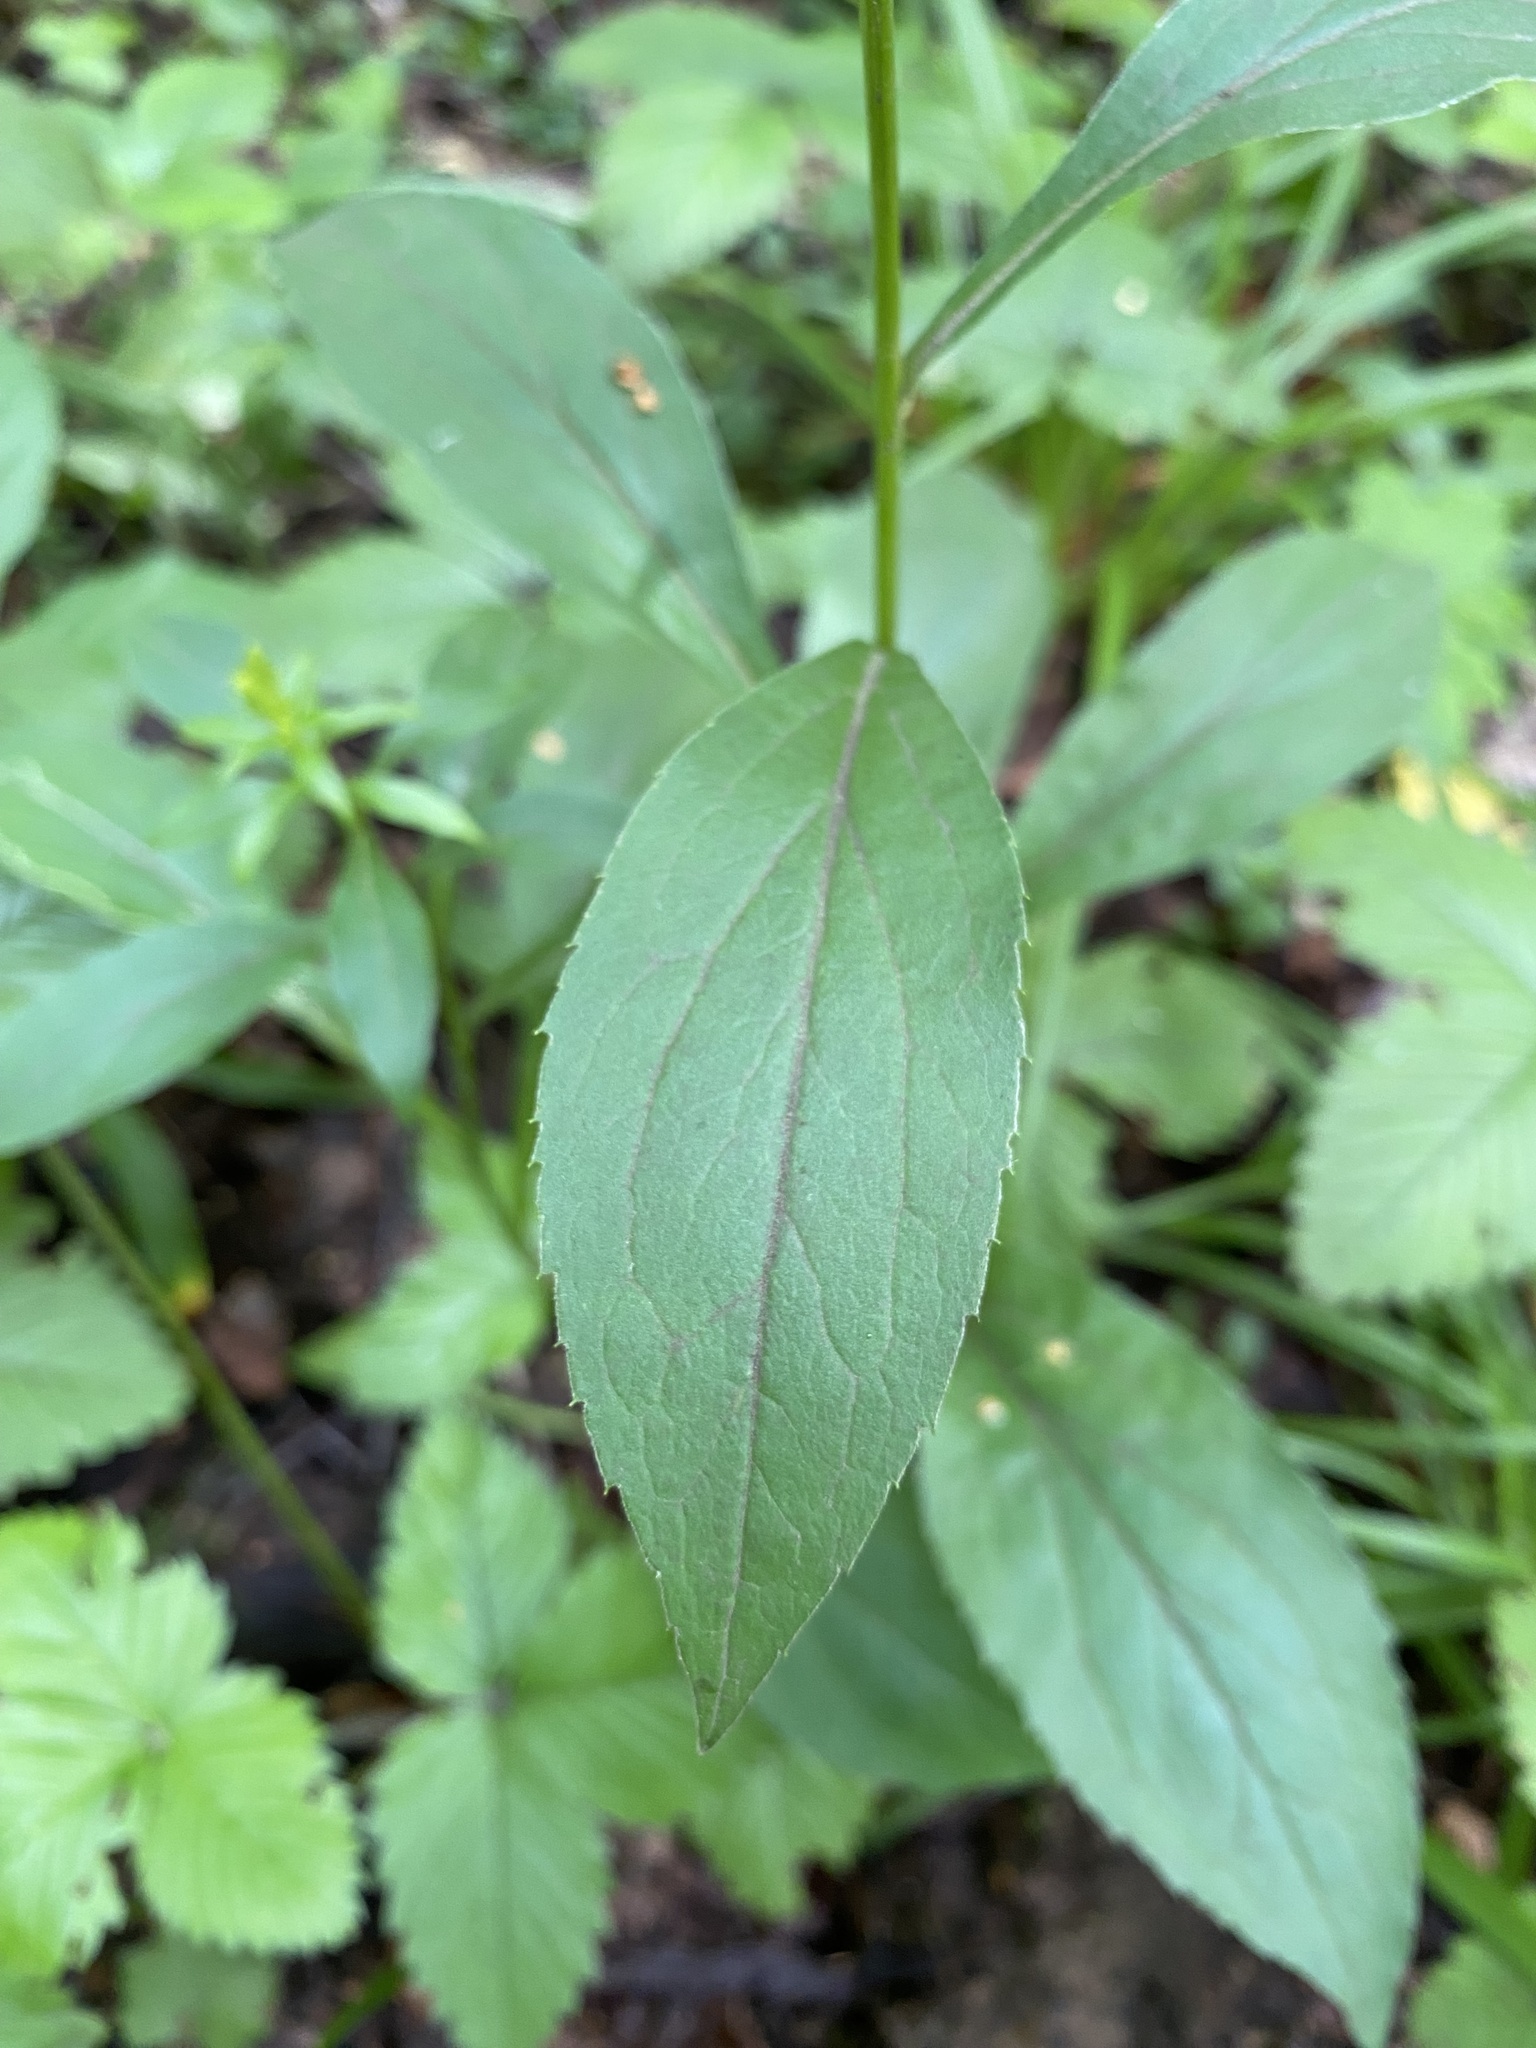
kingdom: Plantae
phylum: Tracheophyta
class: Magnoliopsida
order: Asterales
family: Asteraceae
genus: Solidago
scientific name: Solidago virgaurea
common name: Goldenrod
